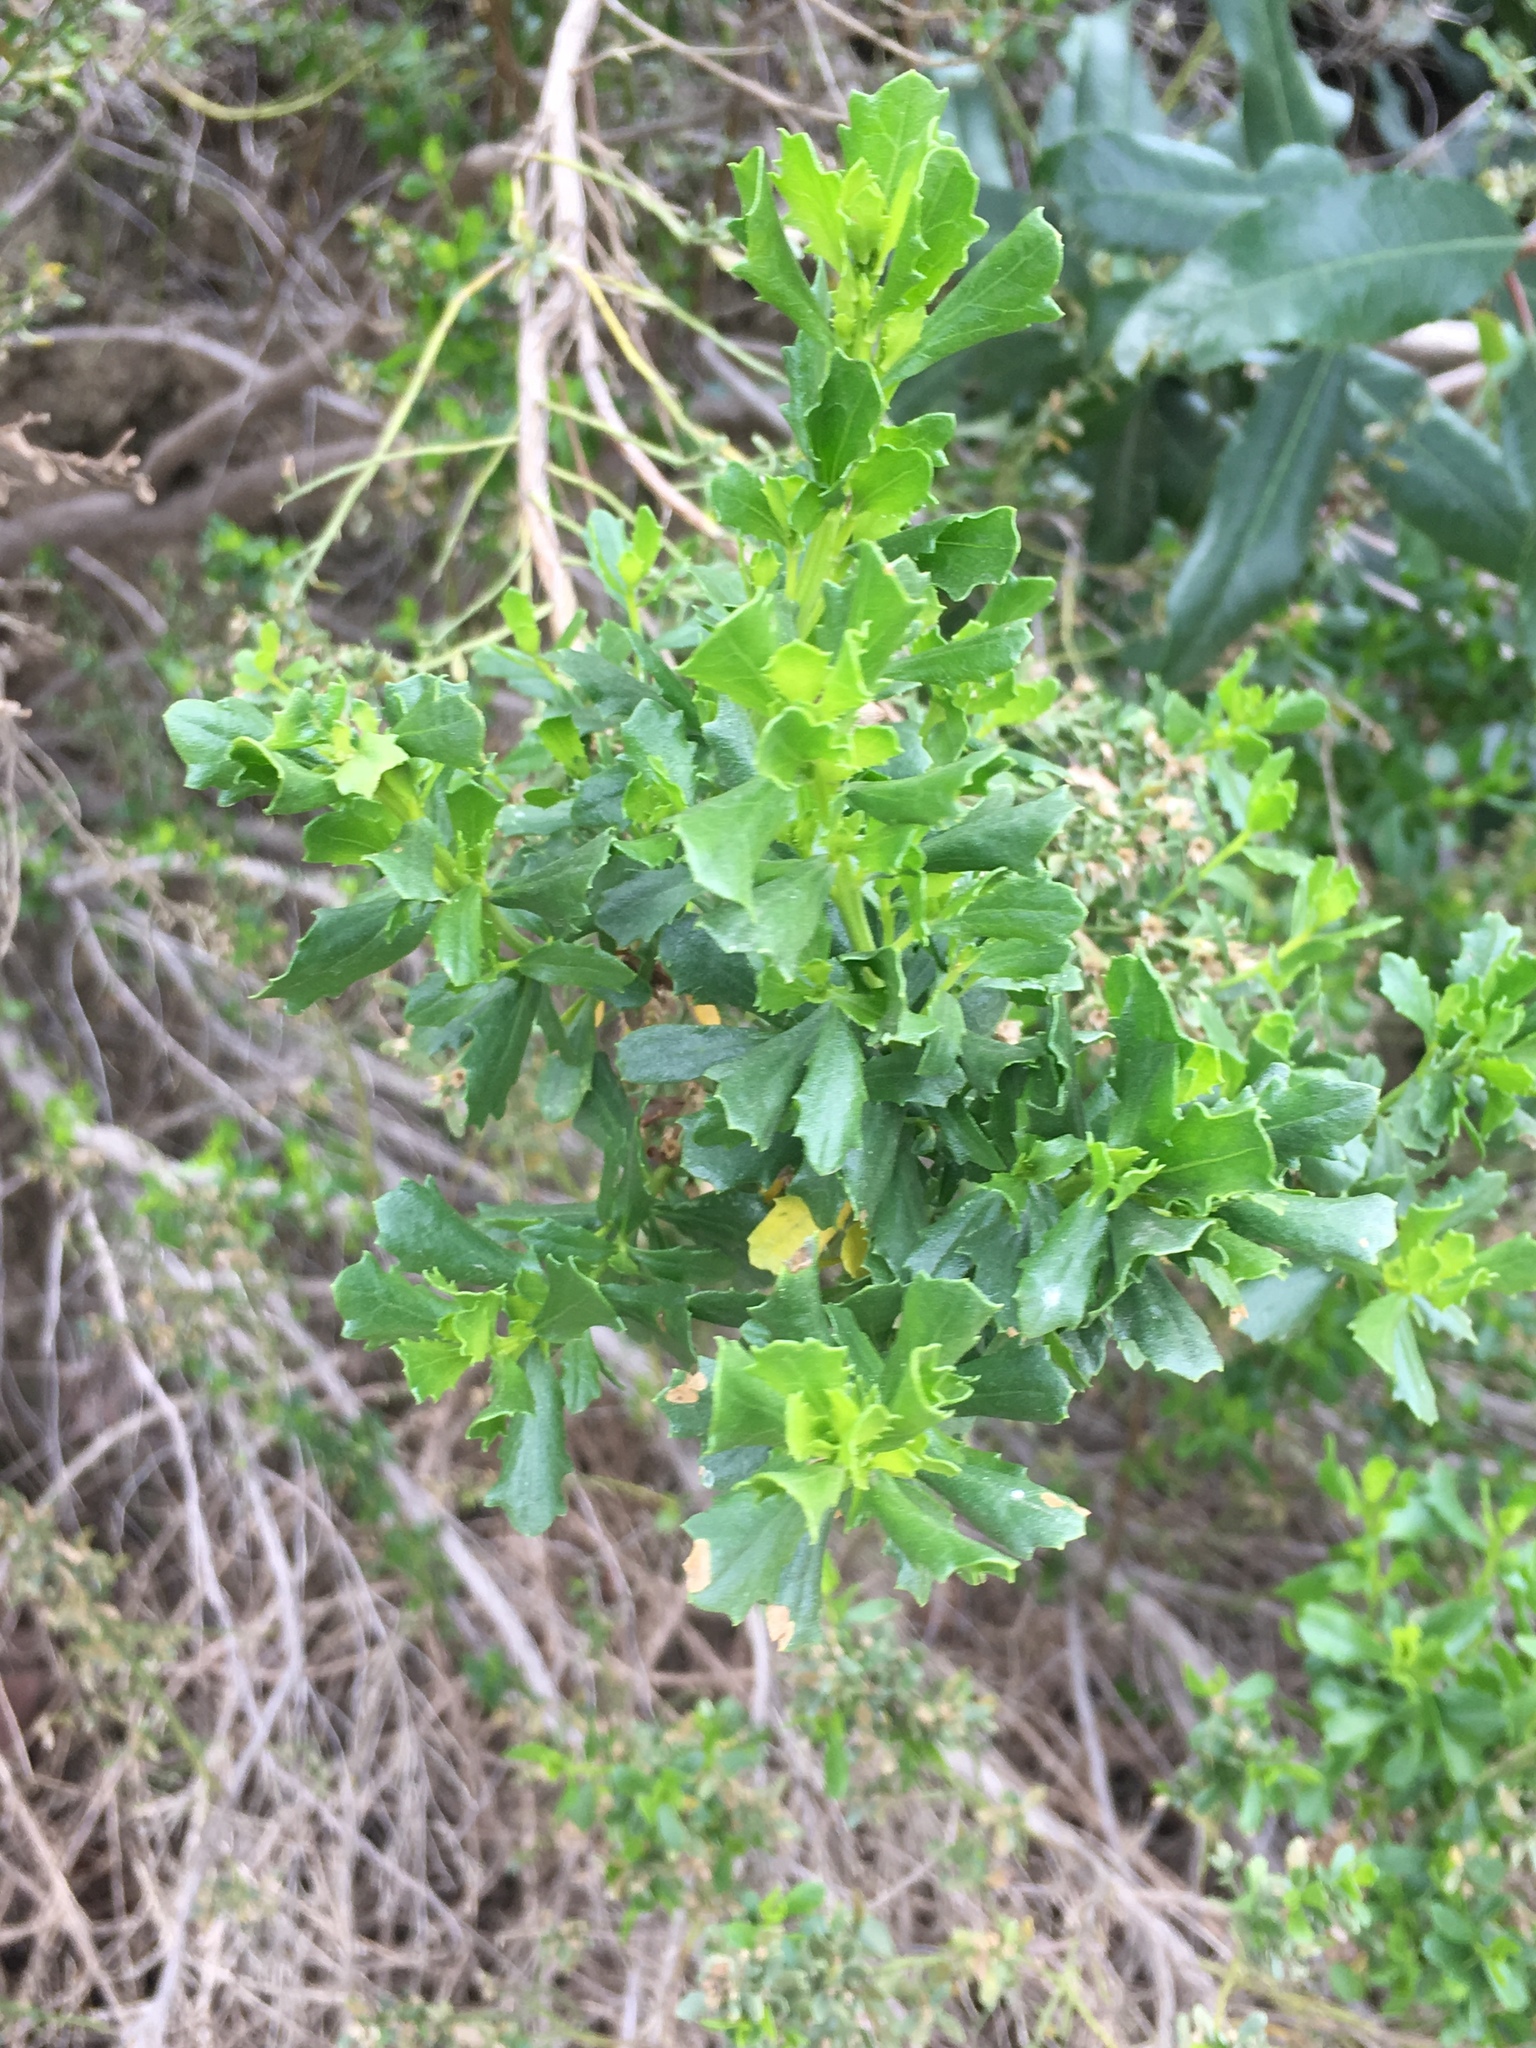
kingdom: Plantae
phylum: Tracheophyta
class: Magnoliopsida
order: Asterales
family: Asteraceae
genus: Baccharis
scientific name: Baccharis pilularis
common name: Coyotebrush
